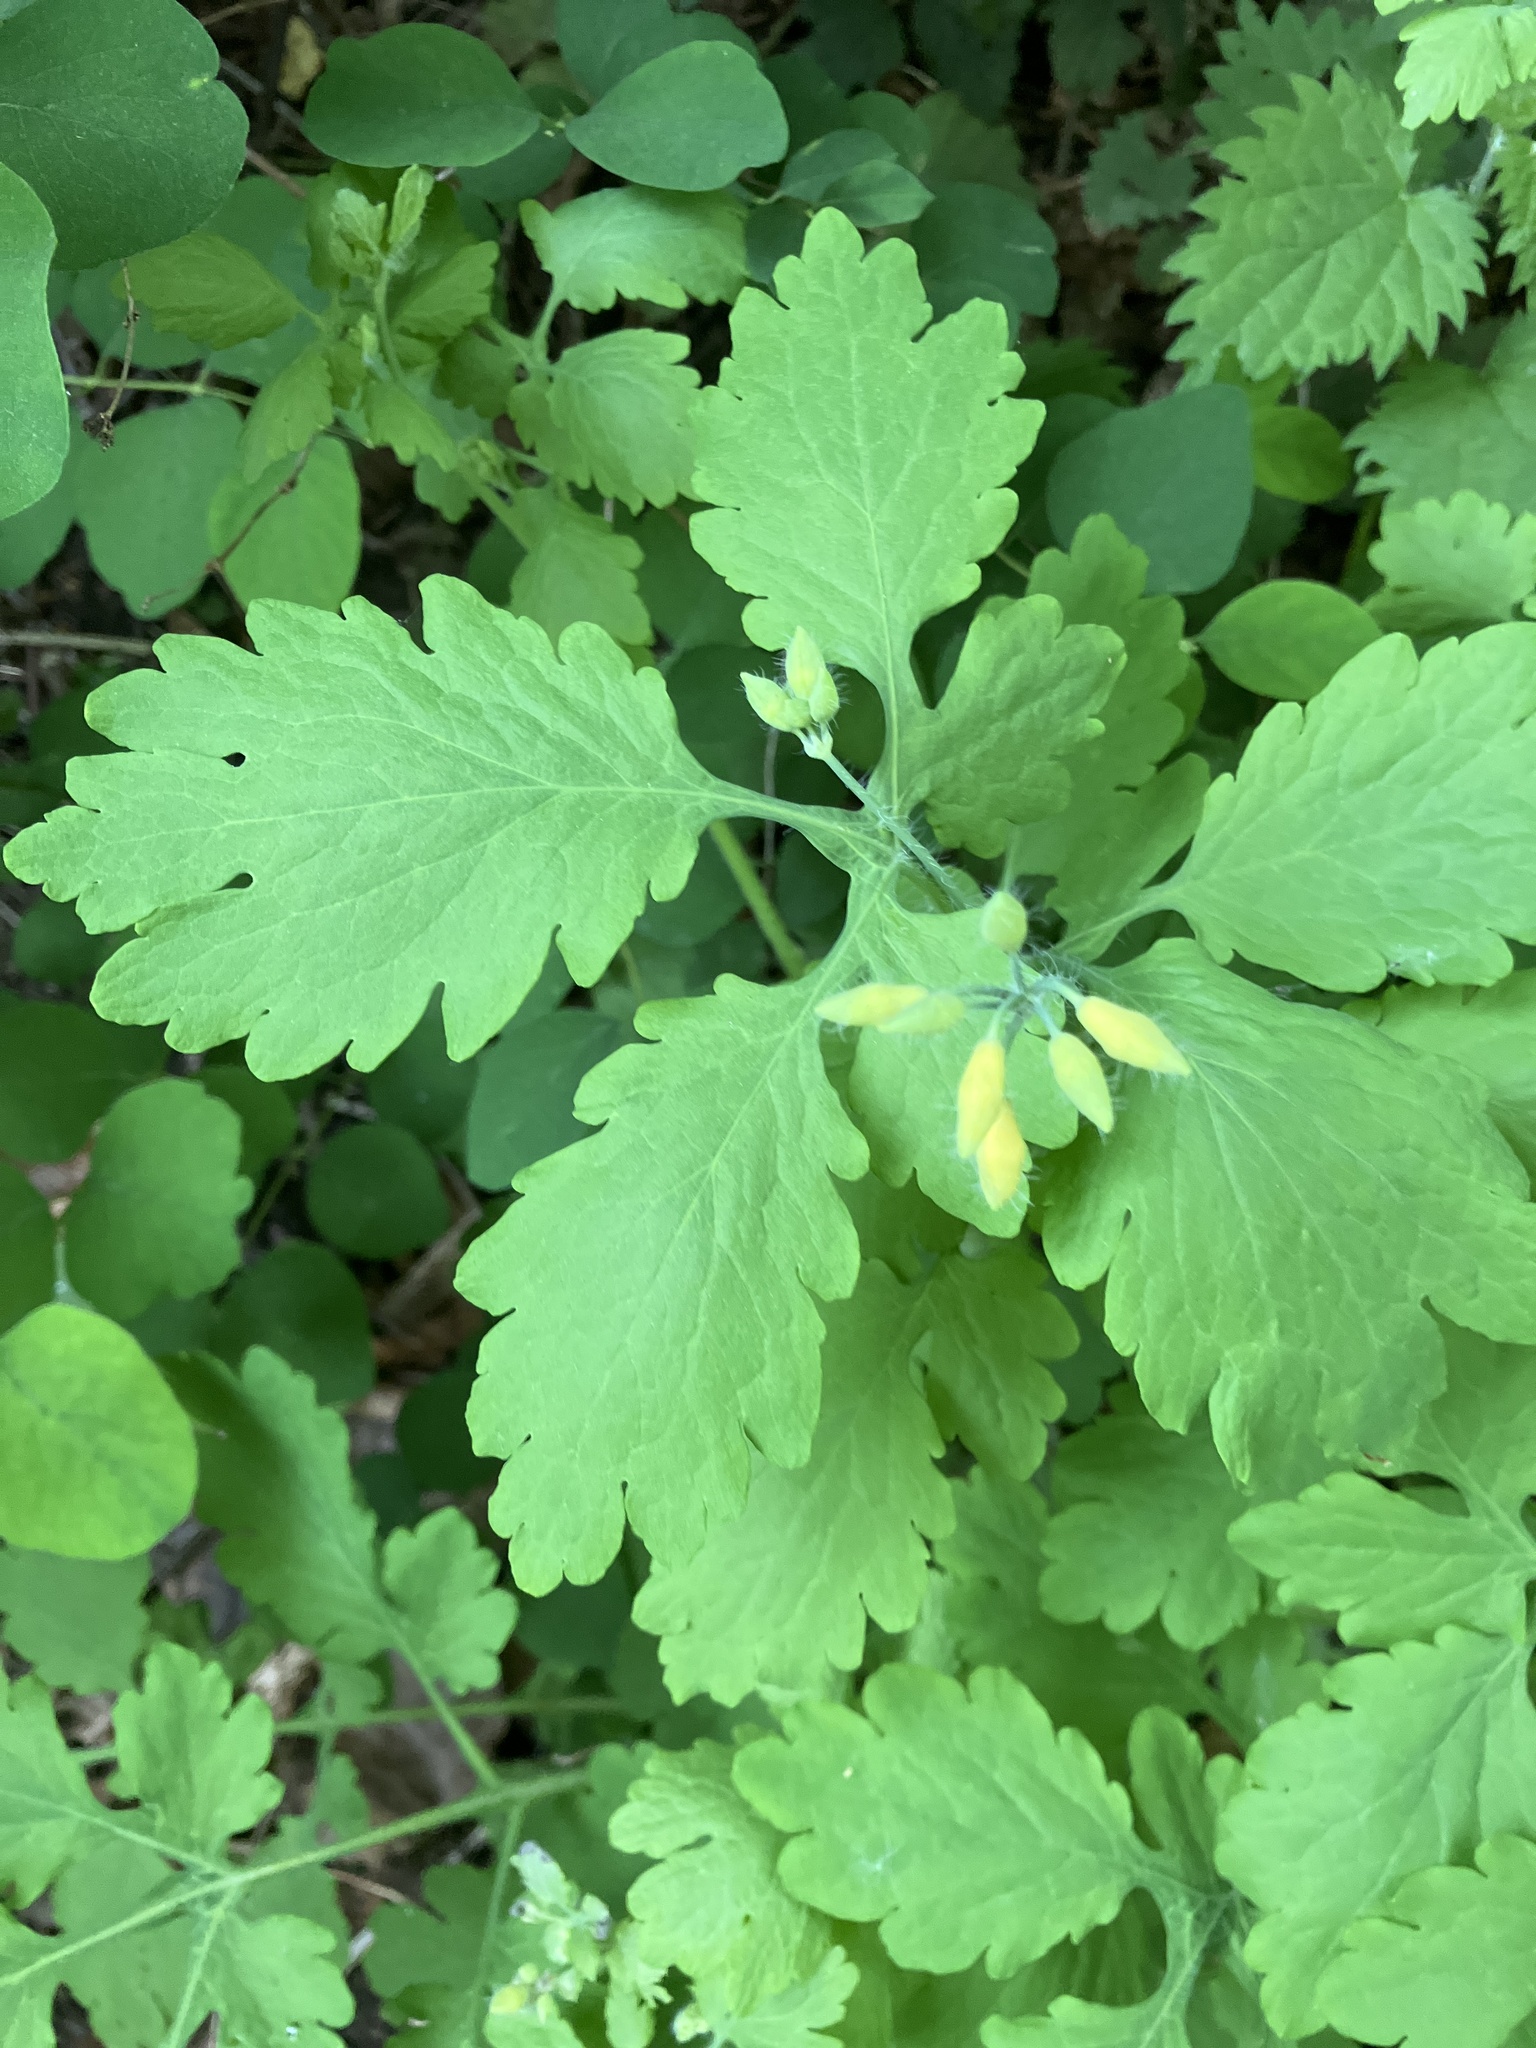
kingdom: Plantae
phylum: Tracheophyta
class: Magnoliopsida
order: Ranunculales
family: Papaveraceae
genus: Chelidonium
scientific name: Chelidonium majus
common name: Greater celandine
